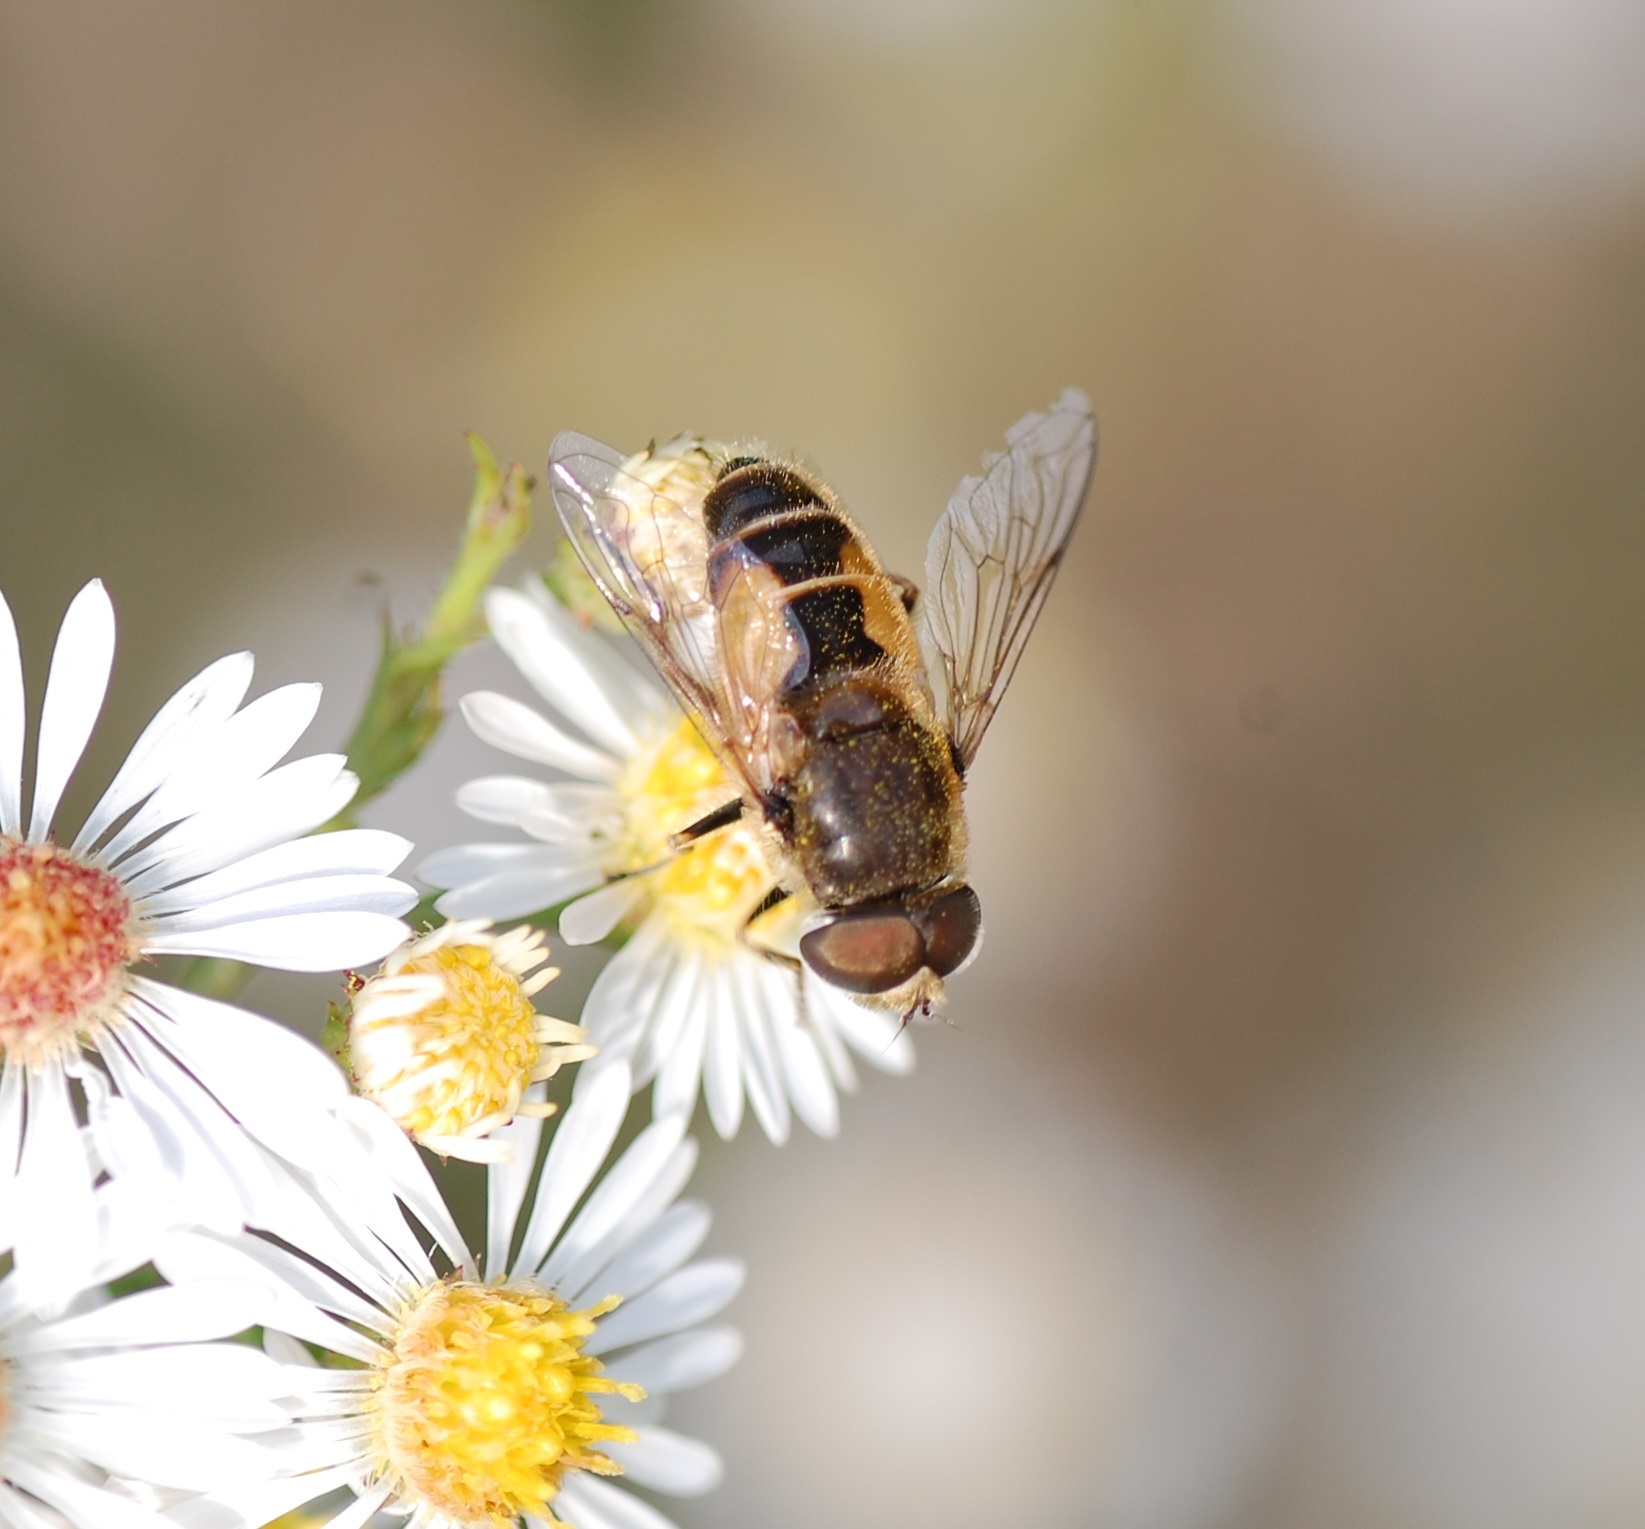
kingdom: Animalia
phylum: Arthropoda
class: Insecta
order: Diptera
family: Syrphidae
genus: Eristalis
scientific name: Eristalis arbustorum
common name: Hover fly
